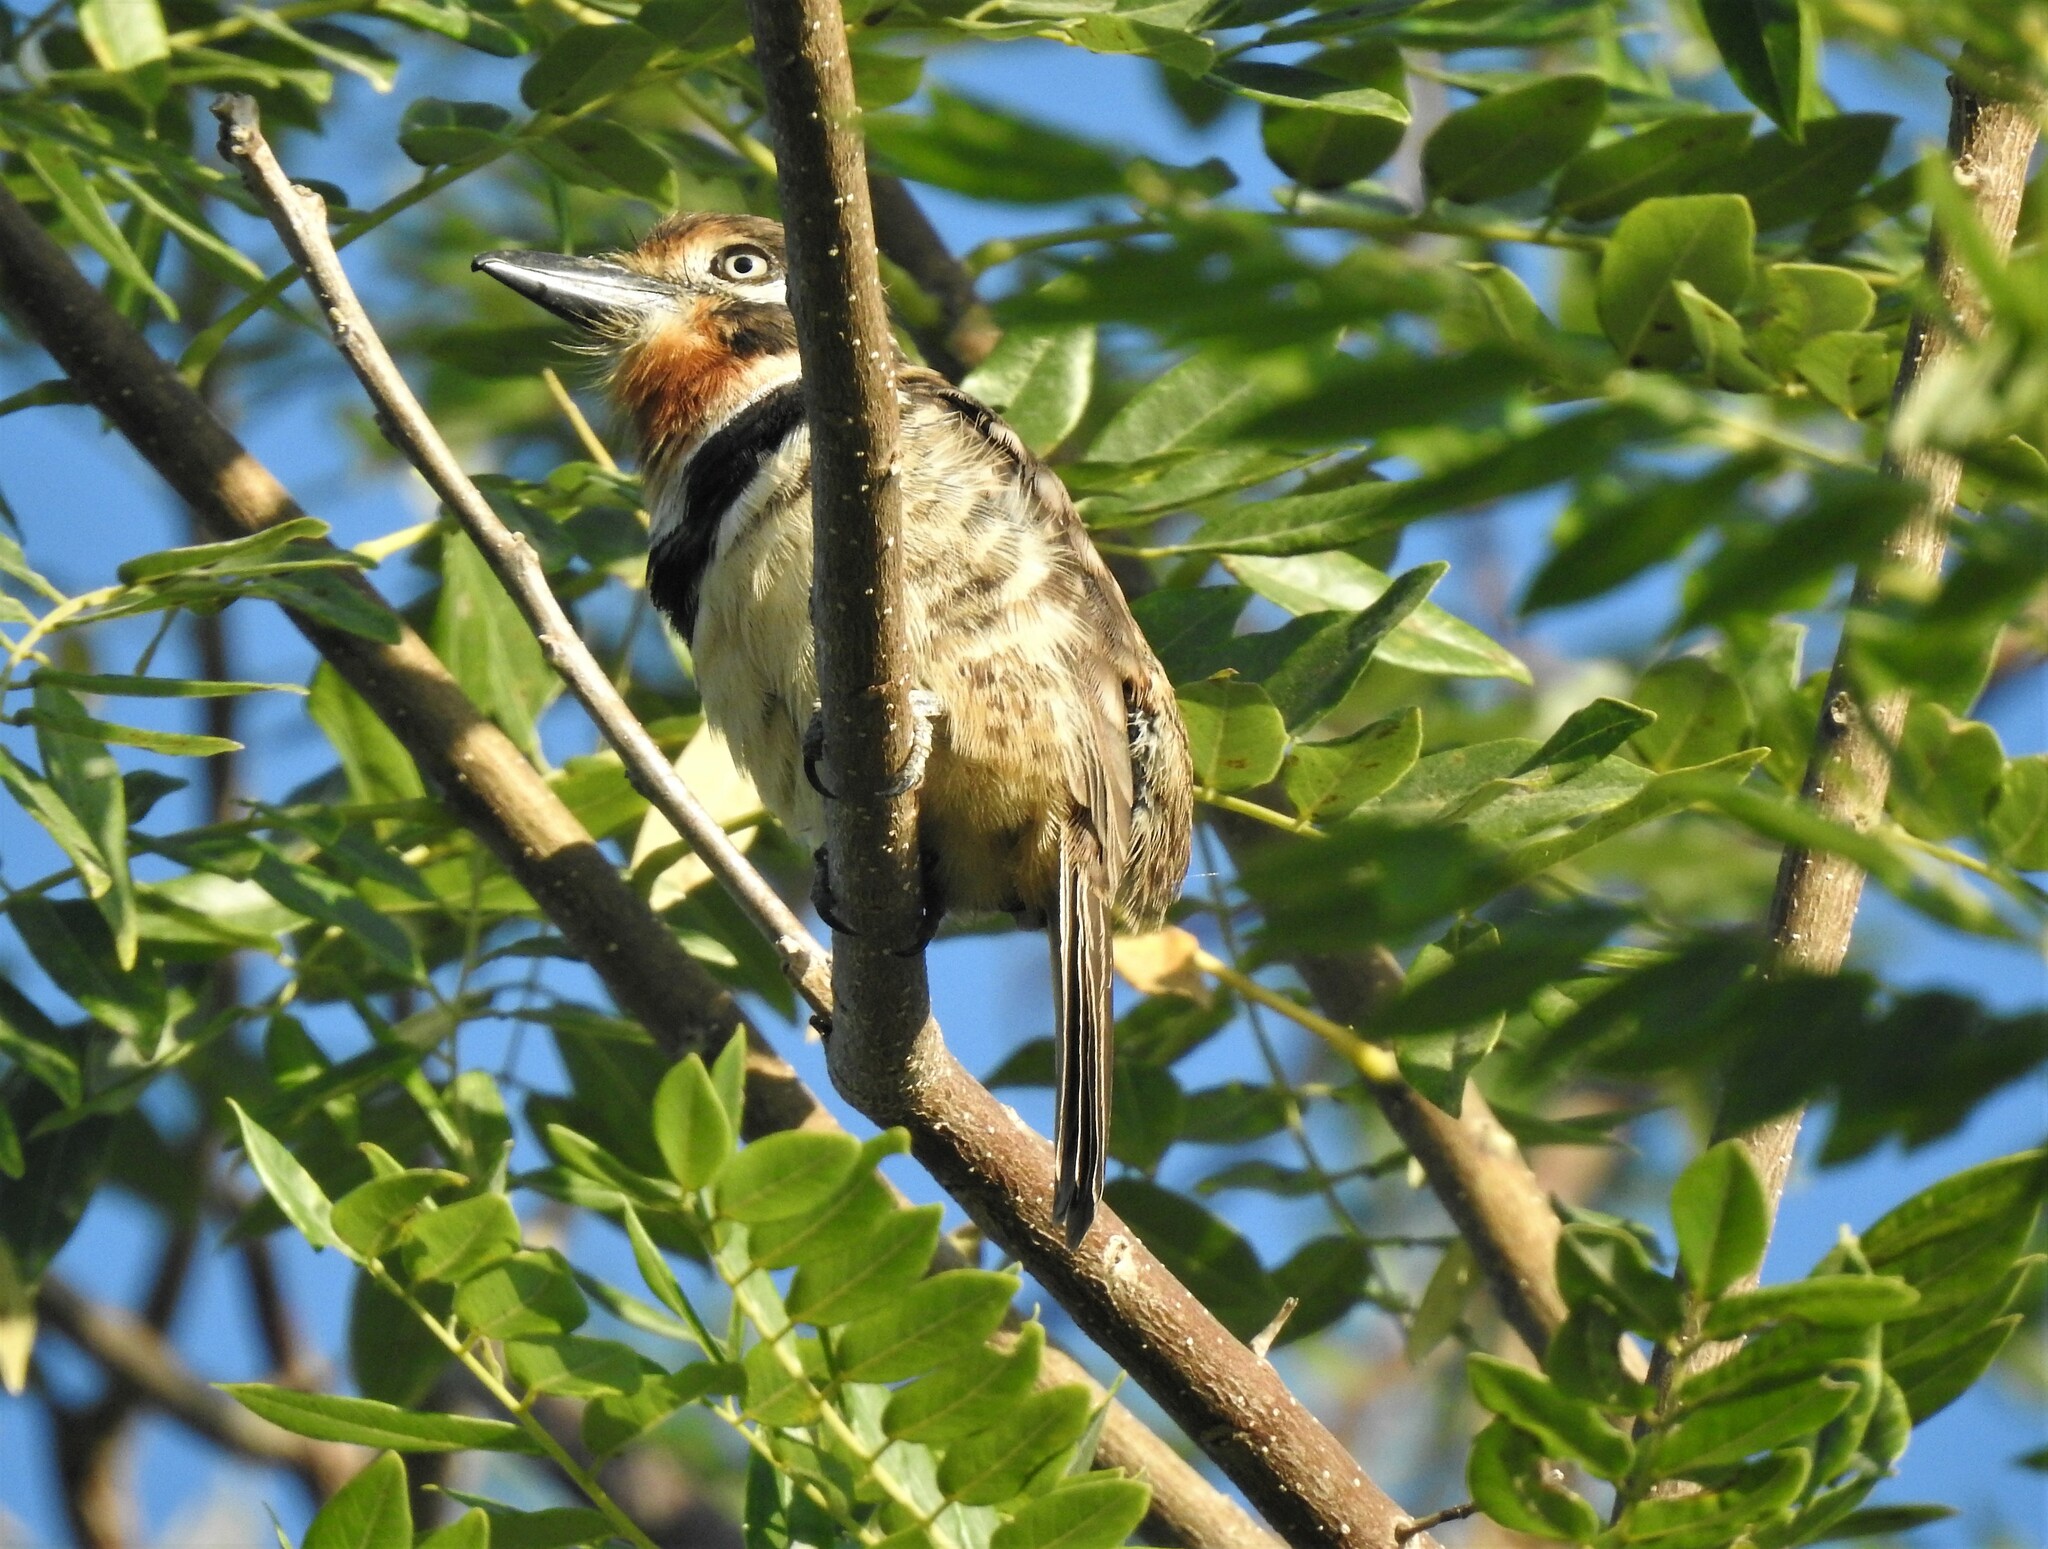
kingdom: Animalia
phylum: Chordata
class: Aves
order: Piciformes
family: Bucconidae
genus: Hypnelus
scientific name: Hypnelus ruficollis
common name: Russet-throated puffbird
